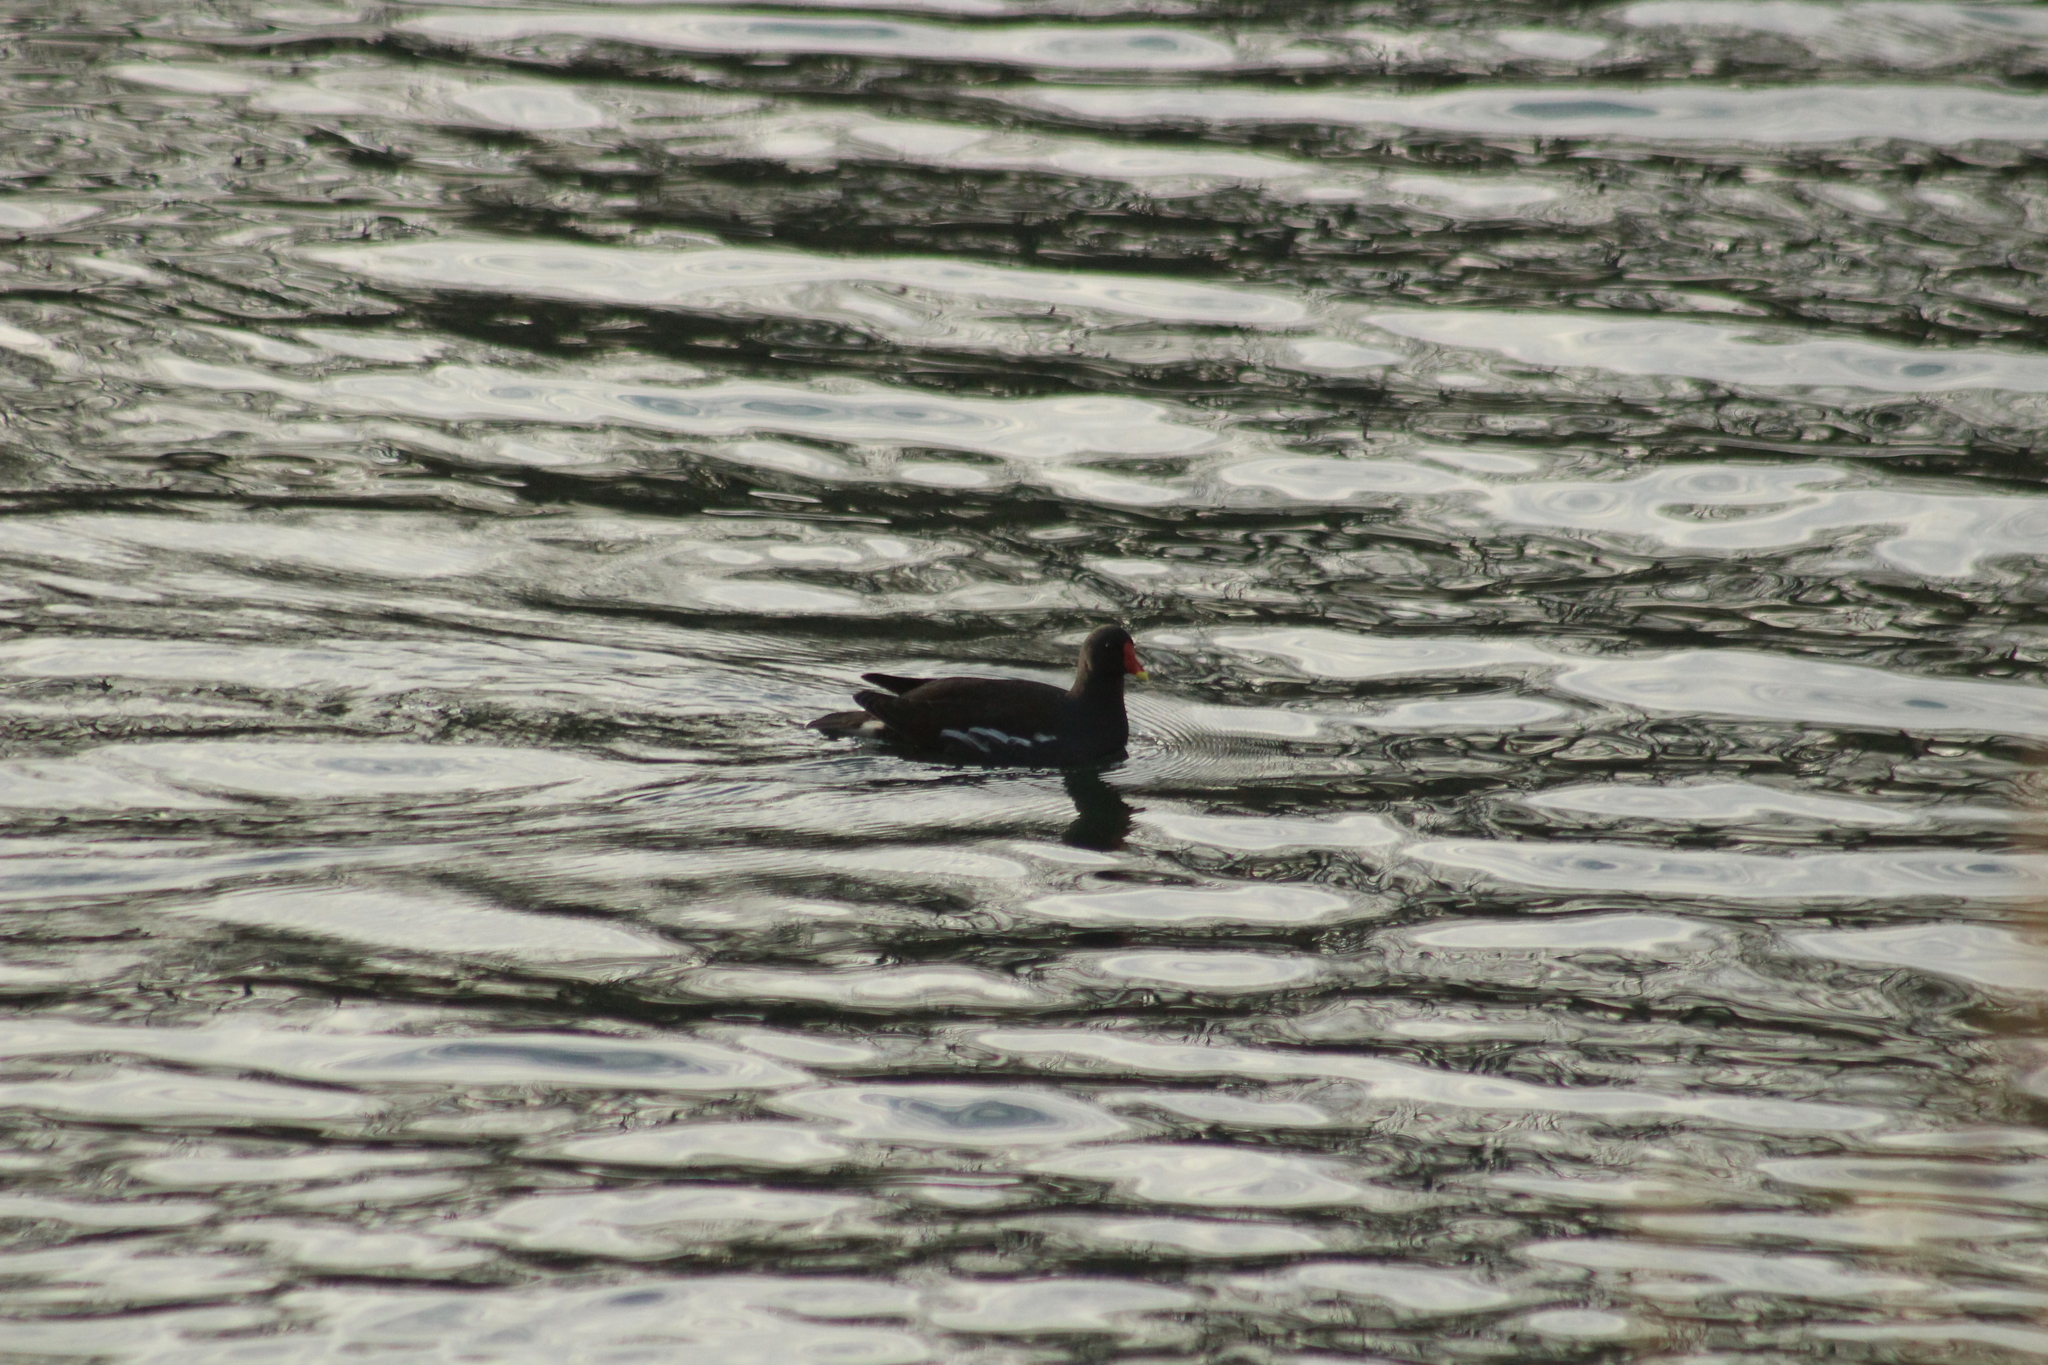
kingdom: Animalia
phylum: Chordata
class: Aves
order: Gruiformes
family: Rallidae
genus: Gallinula
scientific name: Gallinula chloropus
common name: Common moorhen
